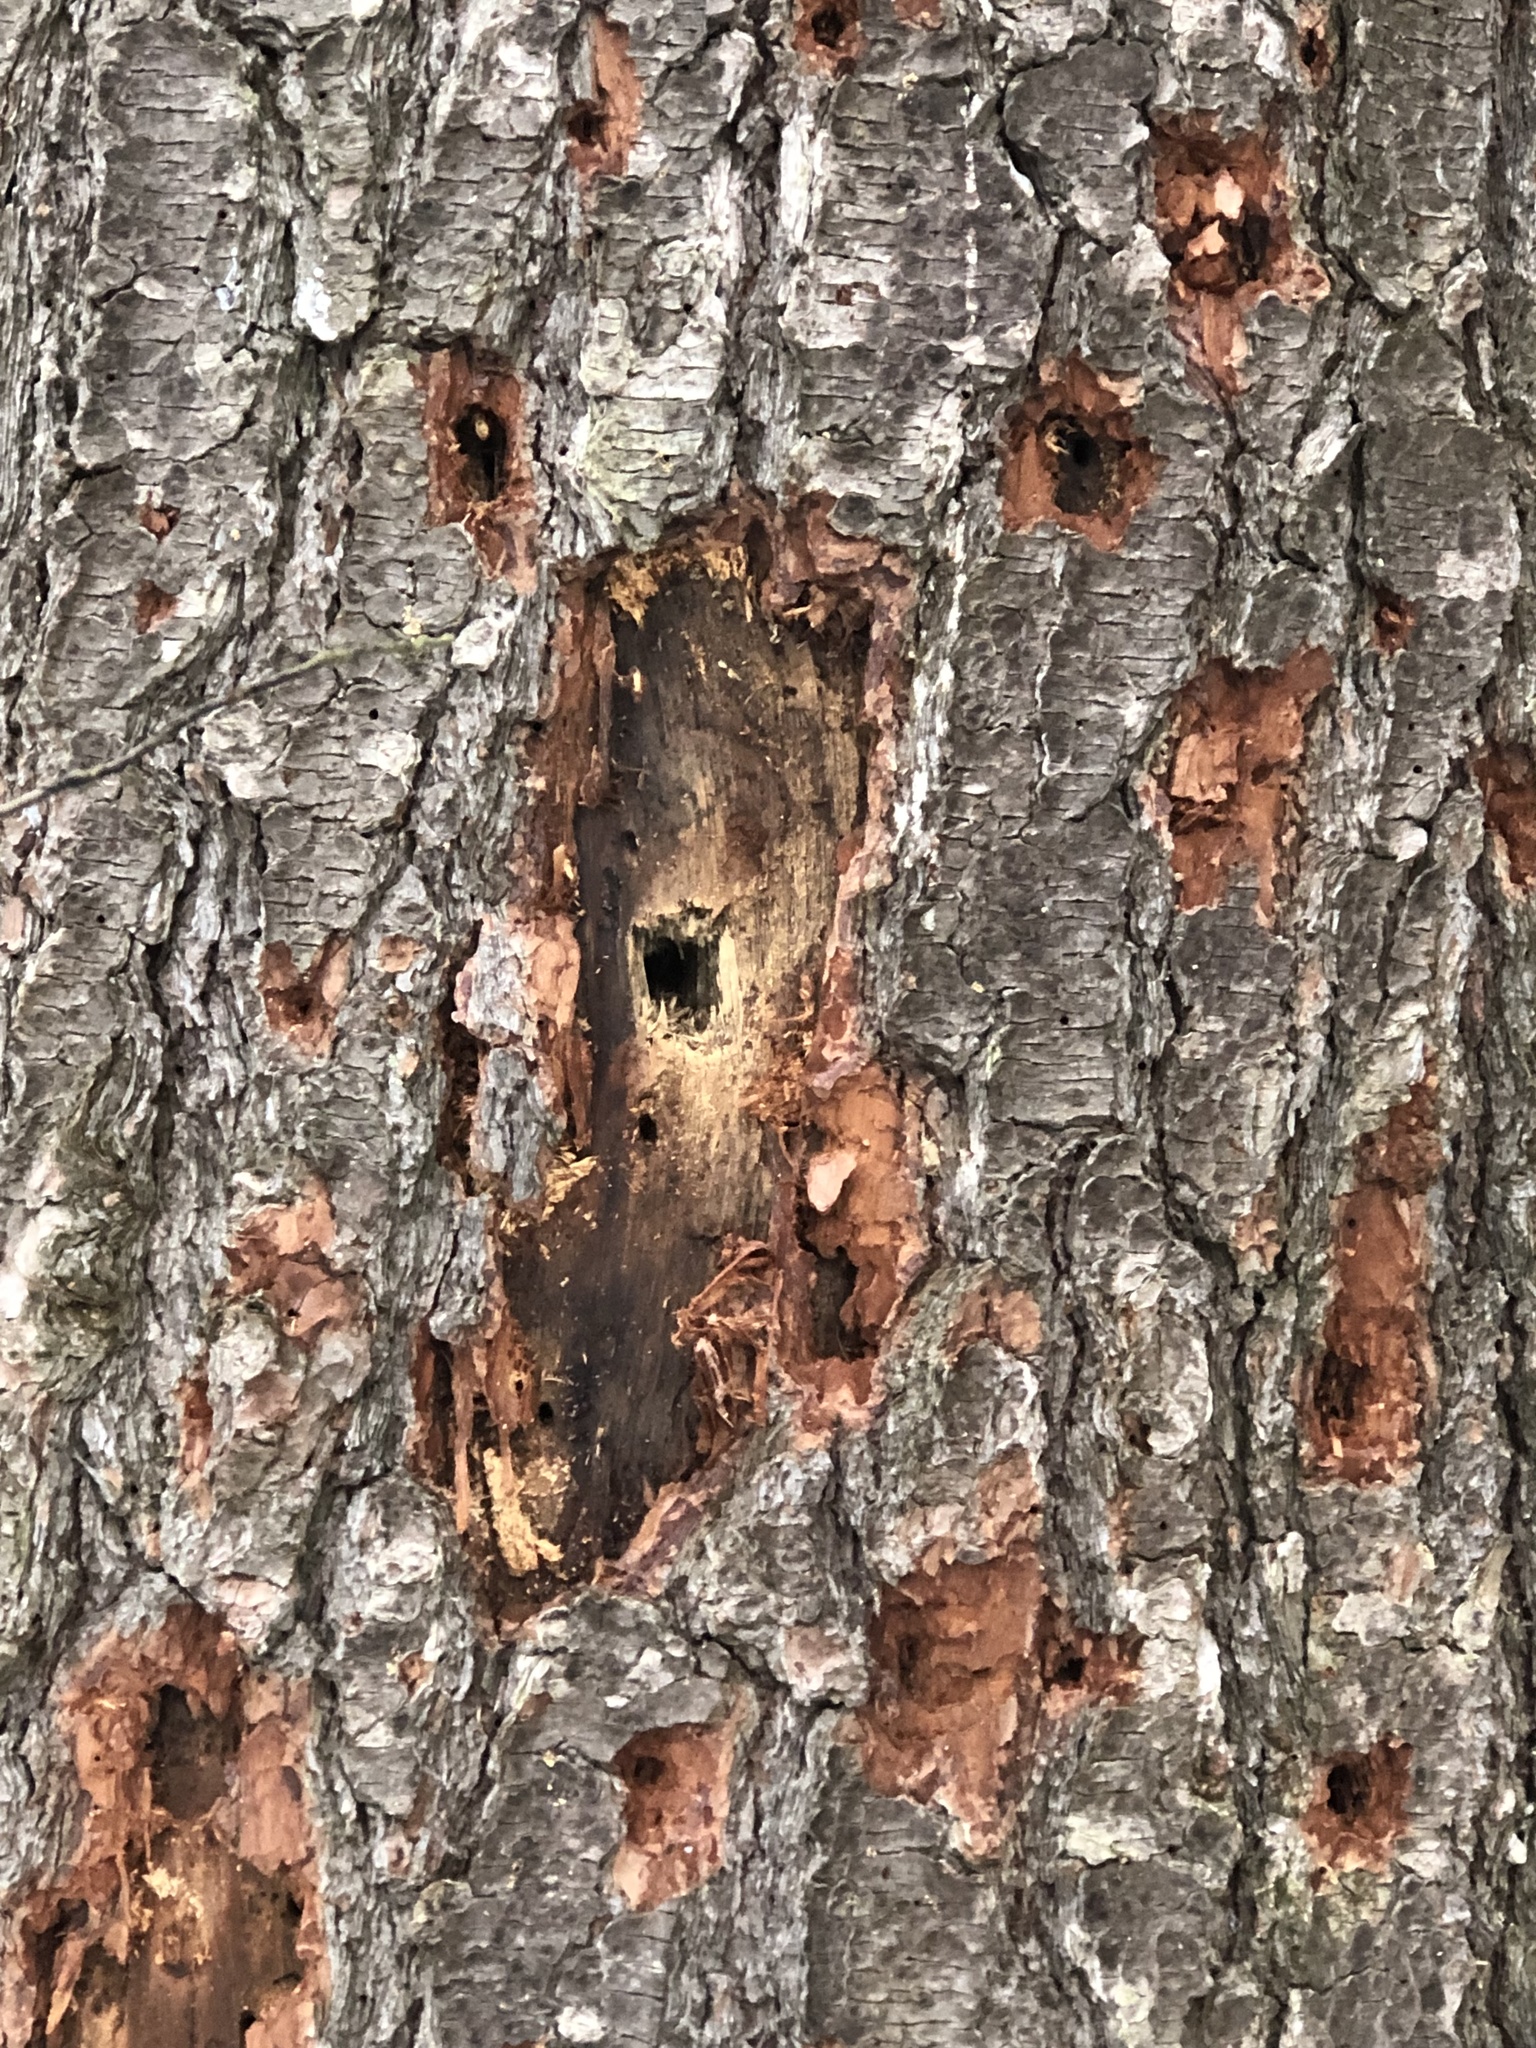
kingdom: Animalia
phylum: Chordata
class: Aves
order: Piciformes
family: Picidae
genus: Dryocopus
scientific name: Dryocopus pileatus
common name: Pileated woodpecker
